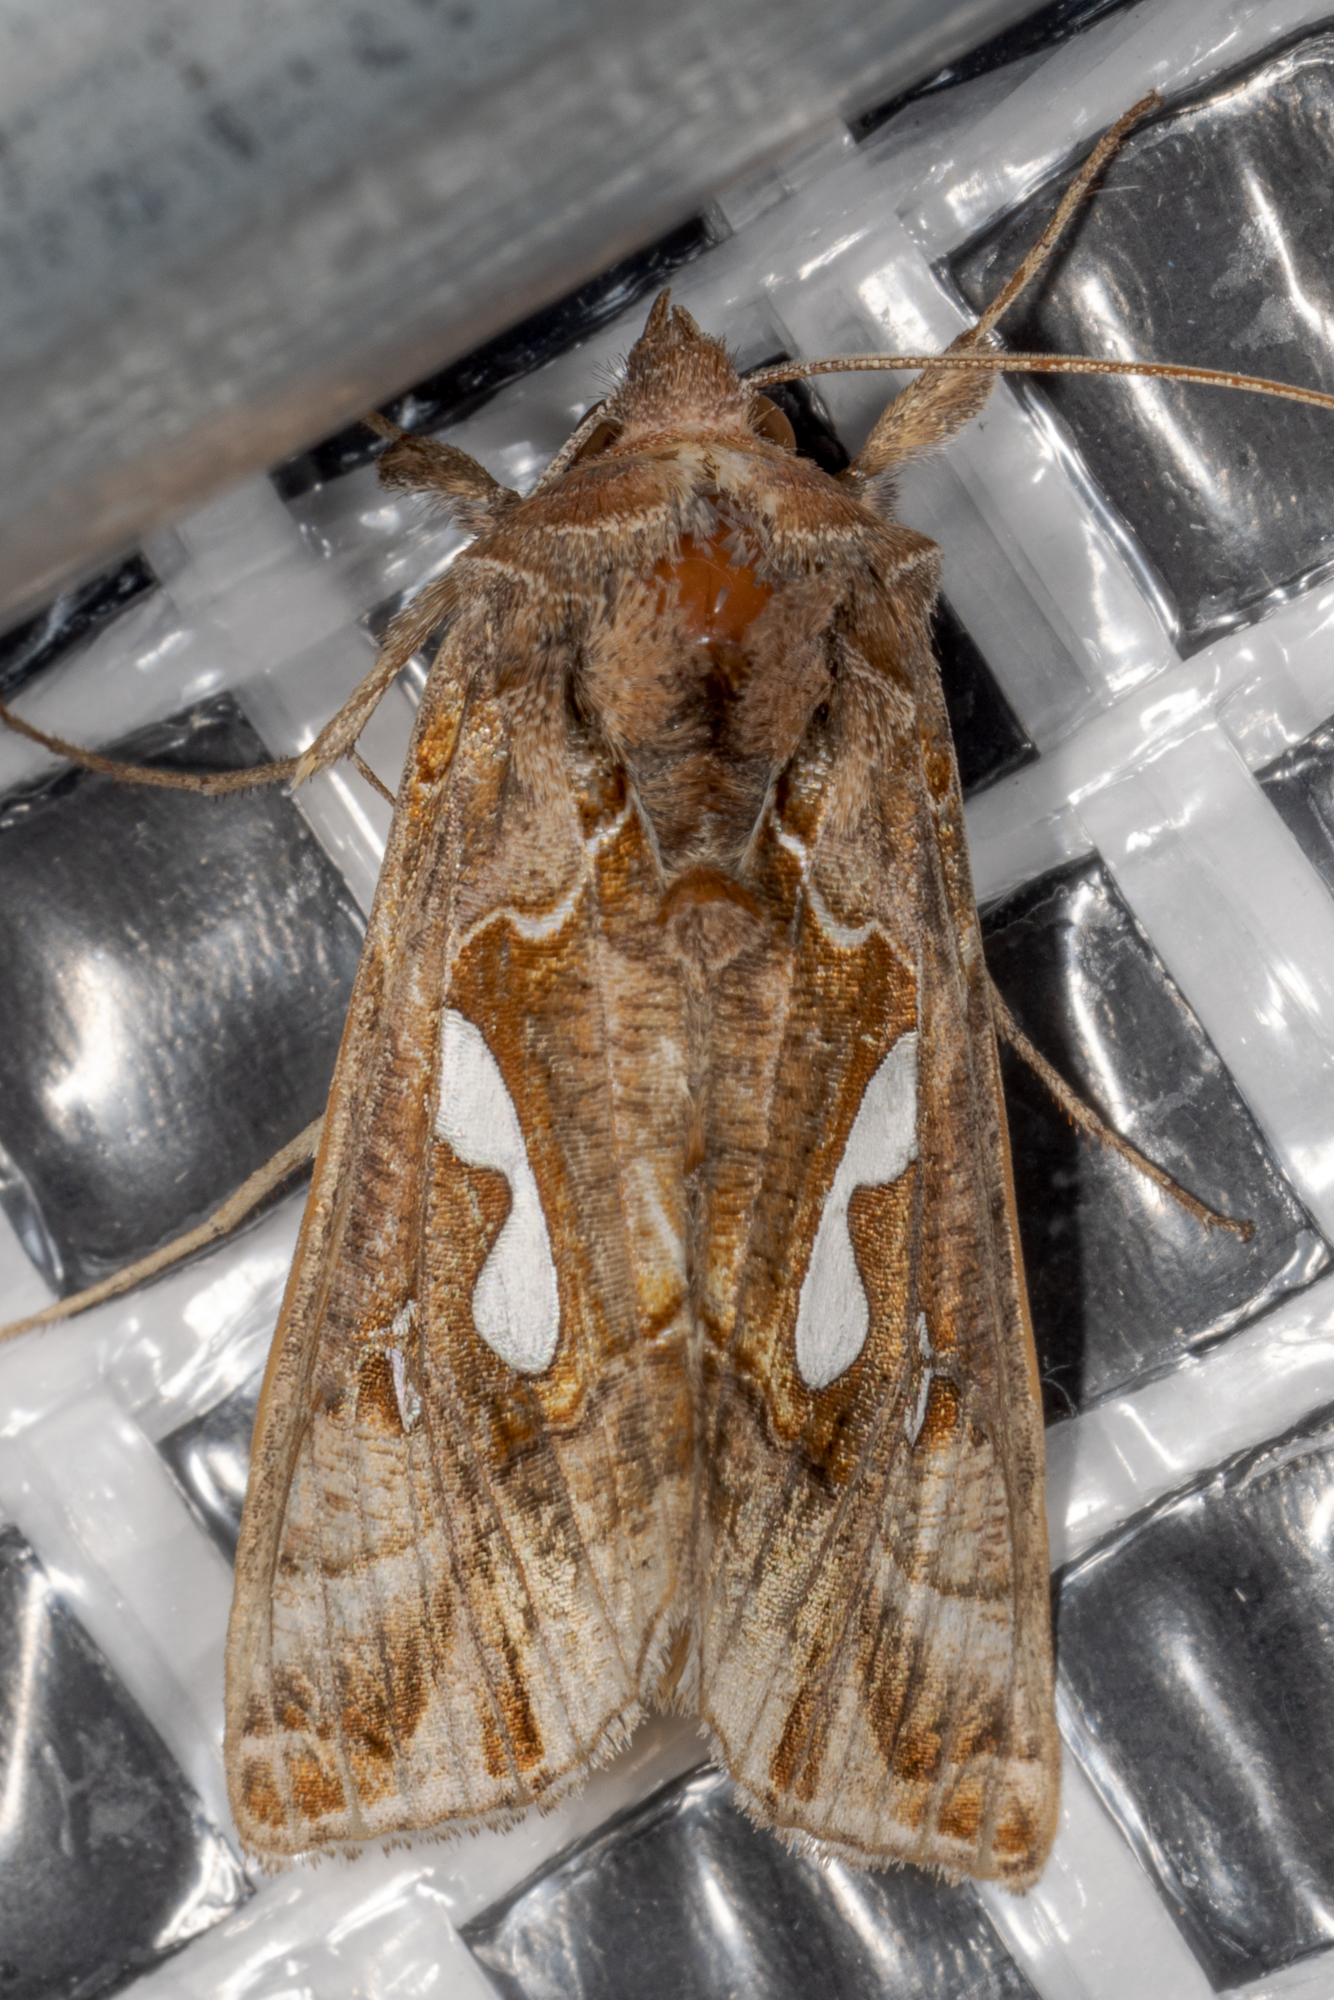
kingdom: Animalia
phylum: Arthropoda
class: Insecta
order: Lepidoptera
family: Noctuidae
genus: Megalographa
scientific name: Megalographa biloba
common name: Cutworm
